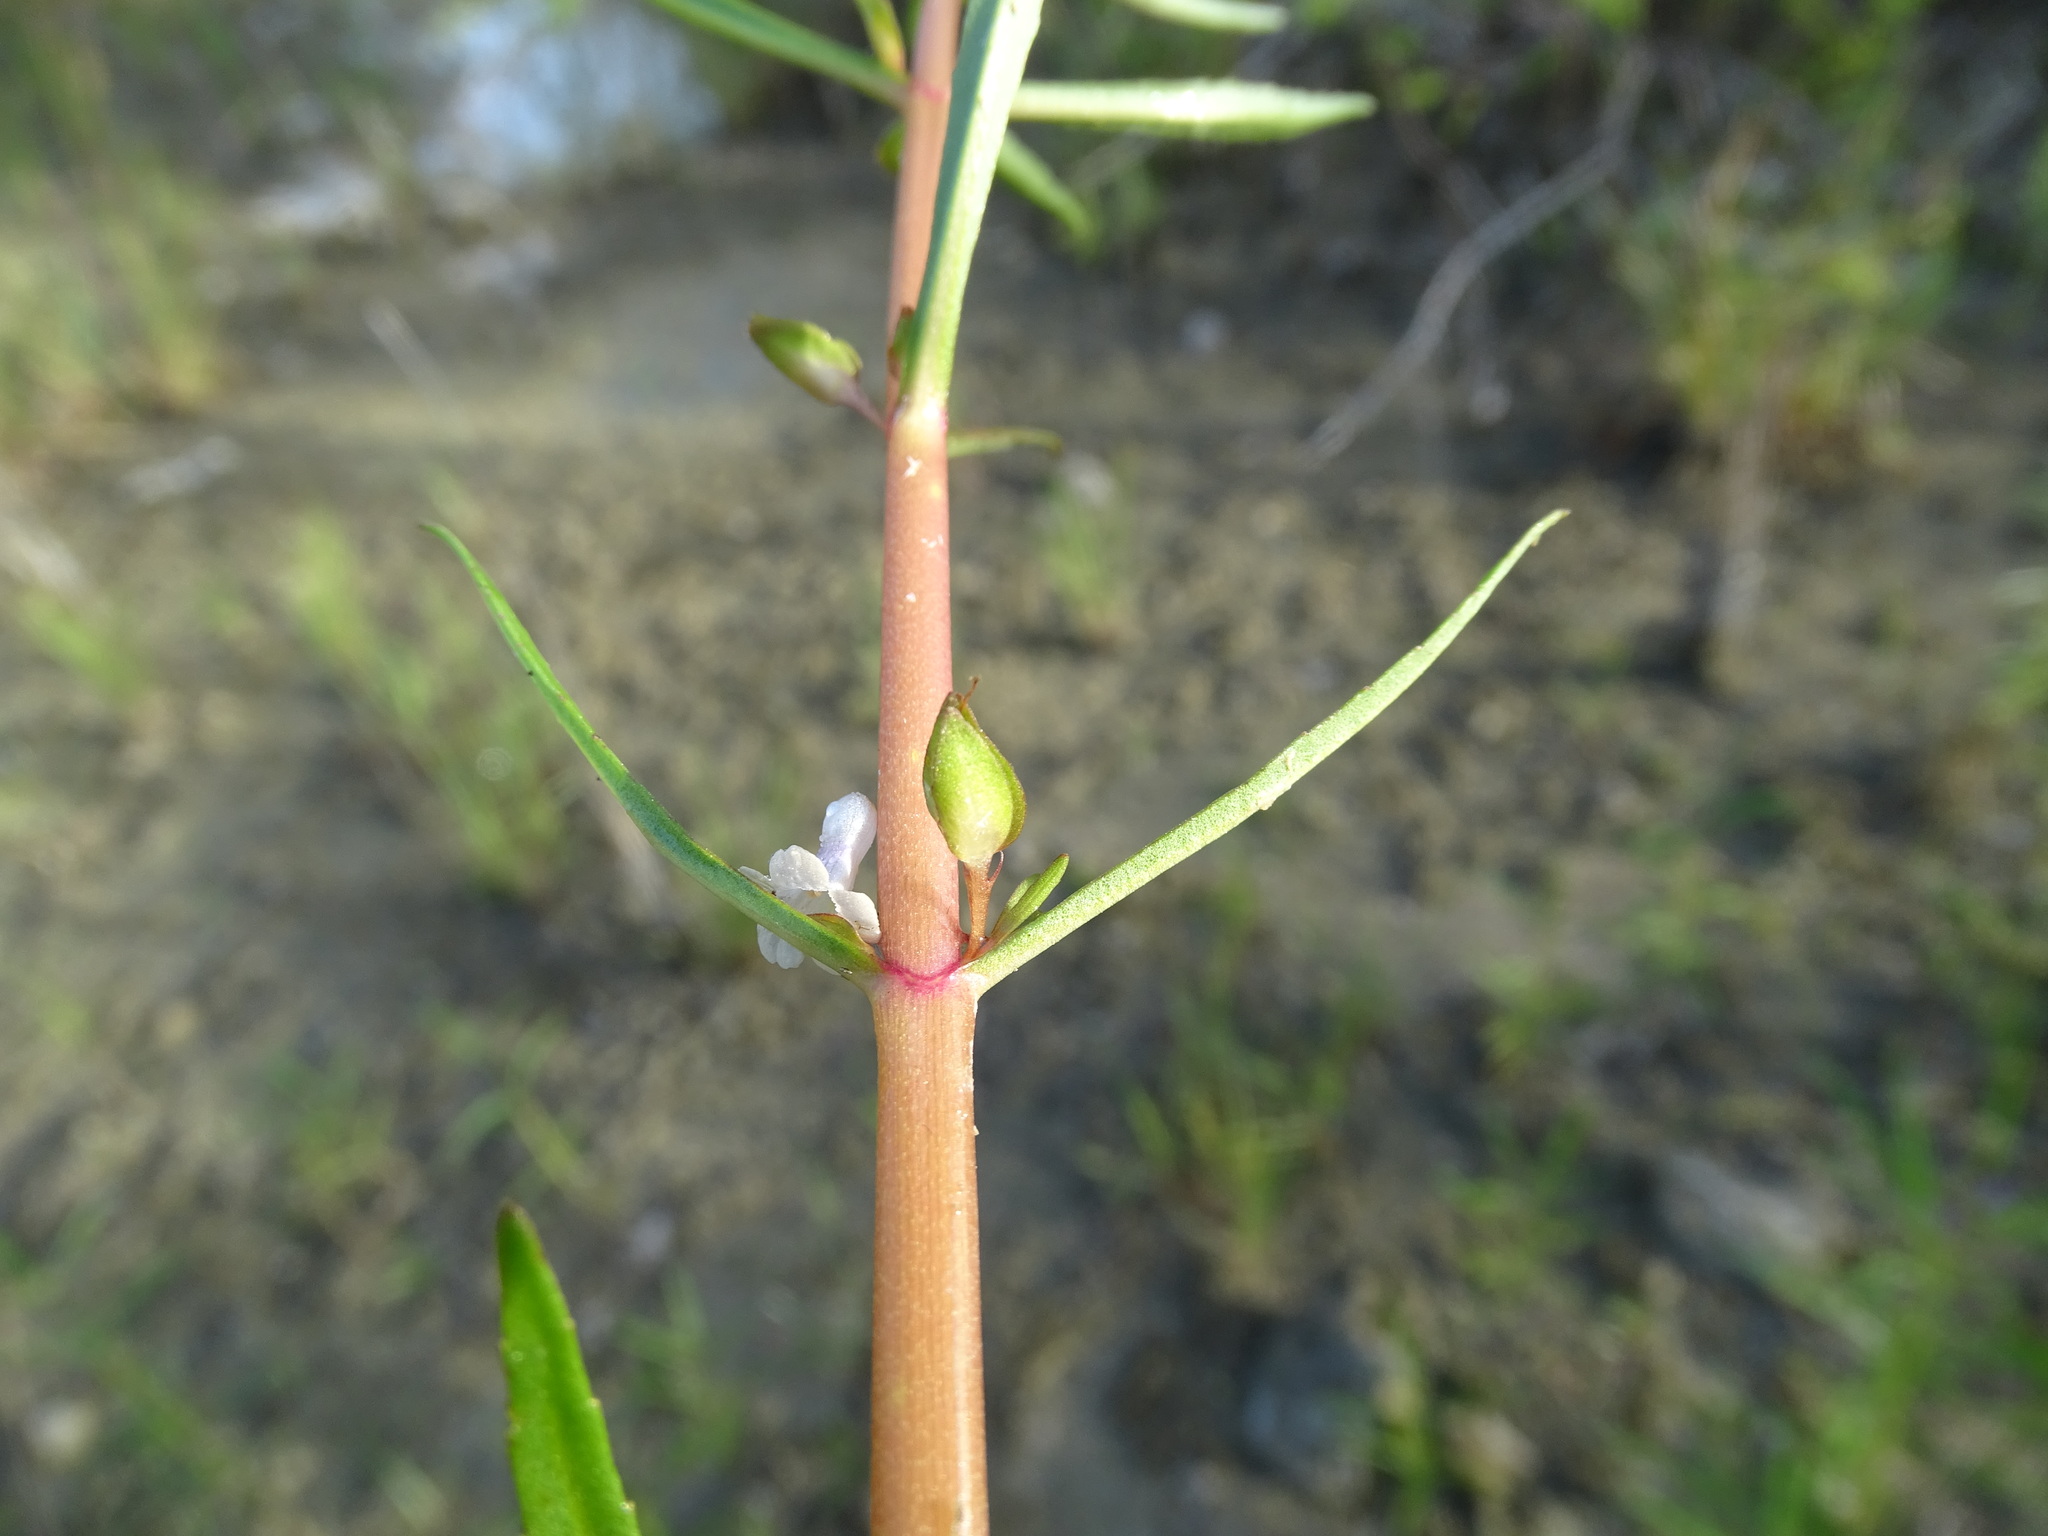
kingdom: Plantae
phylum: Tracheophyta
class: Magnoliopsida
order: Lamiales
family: Plantaginaceae
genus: Bacopa
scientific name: Bacopa lacertosa
